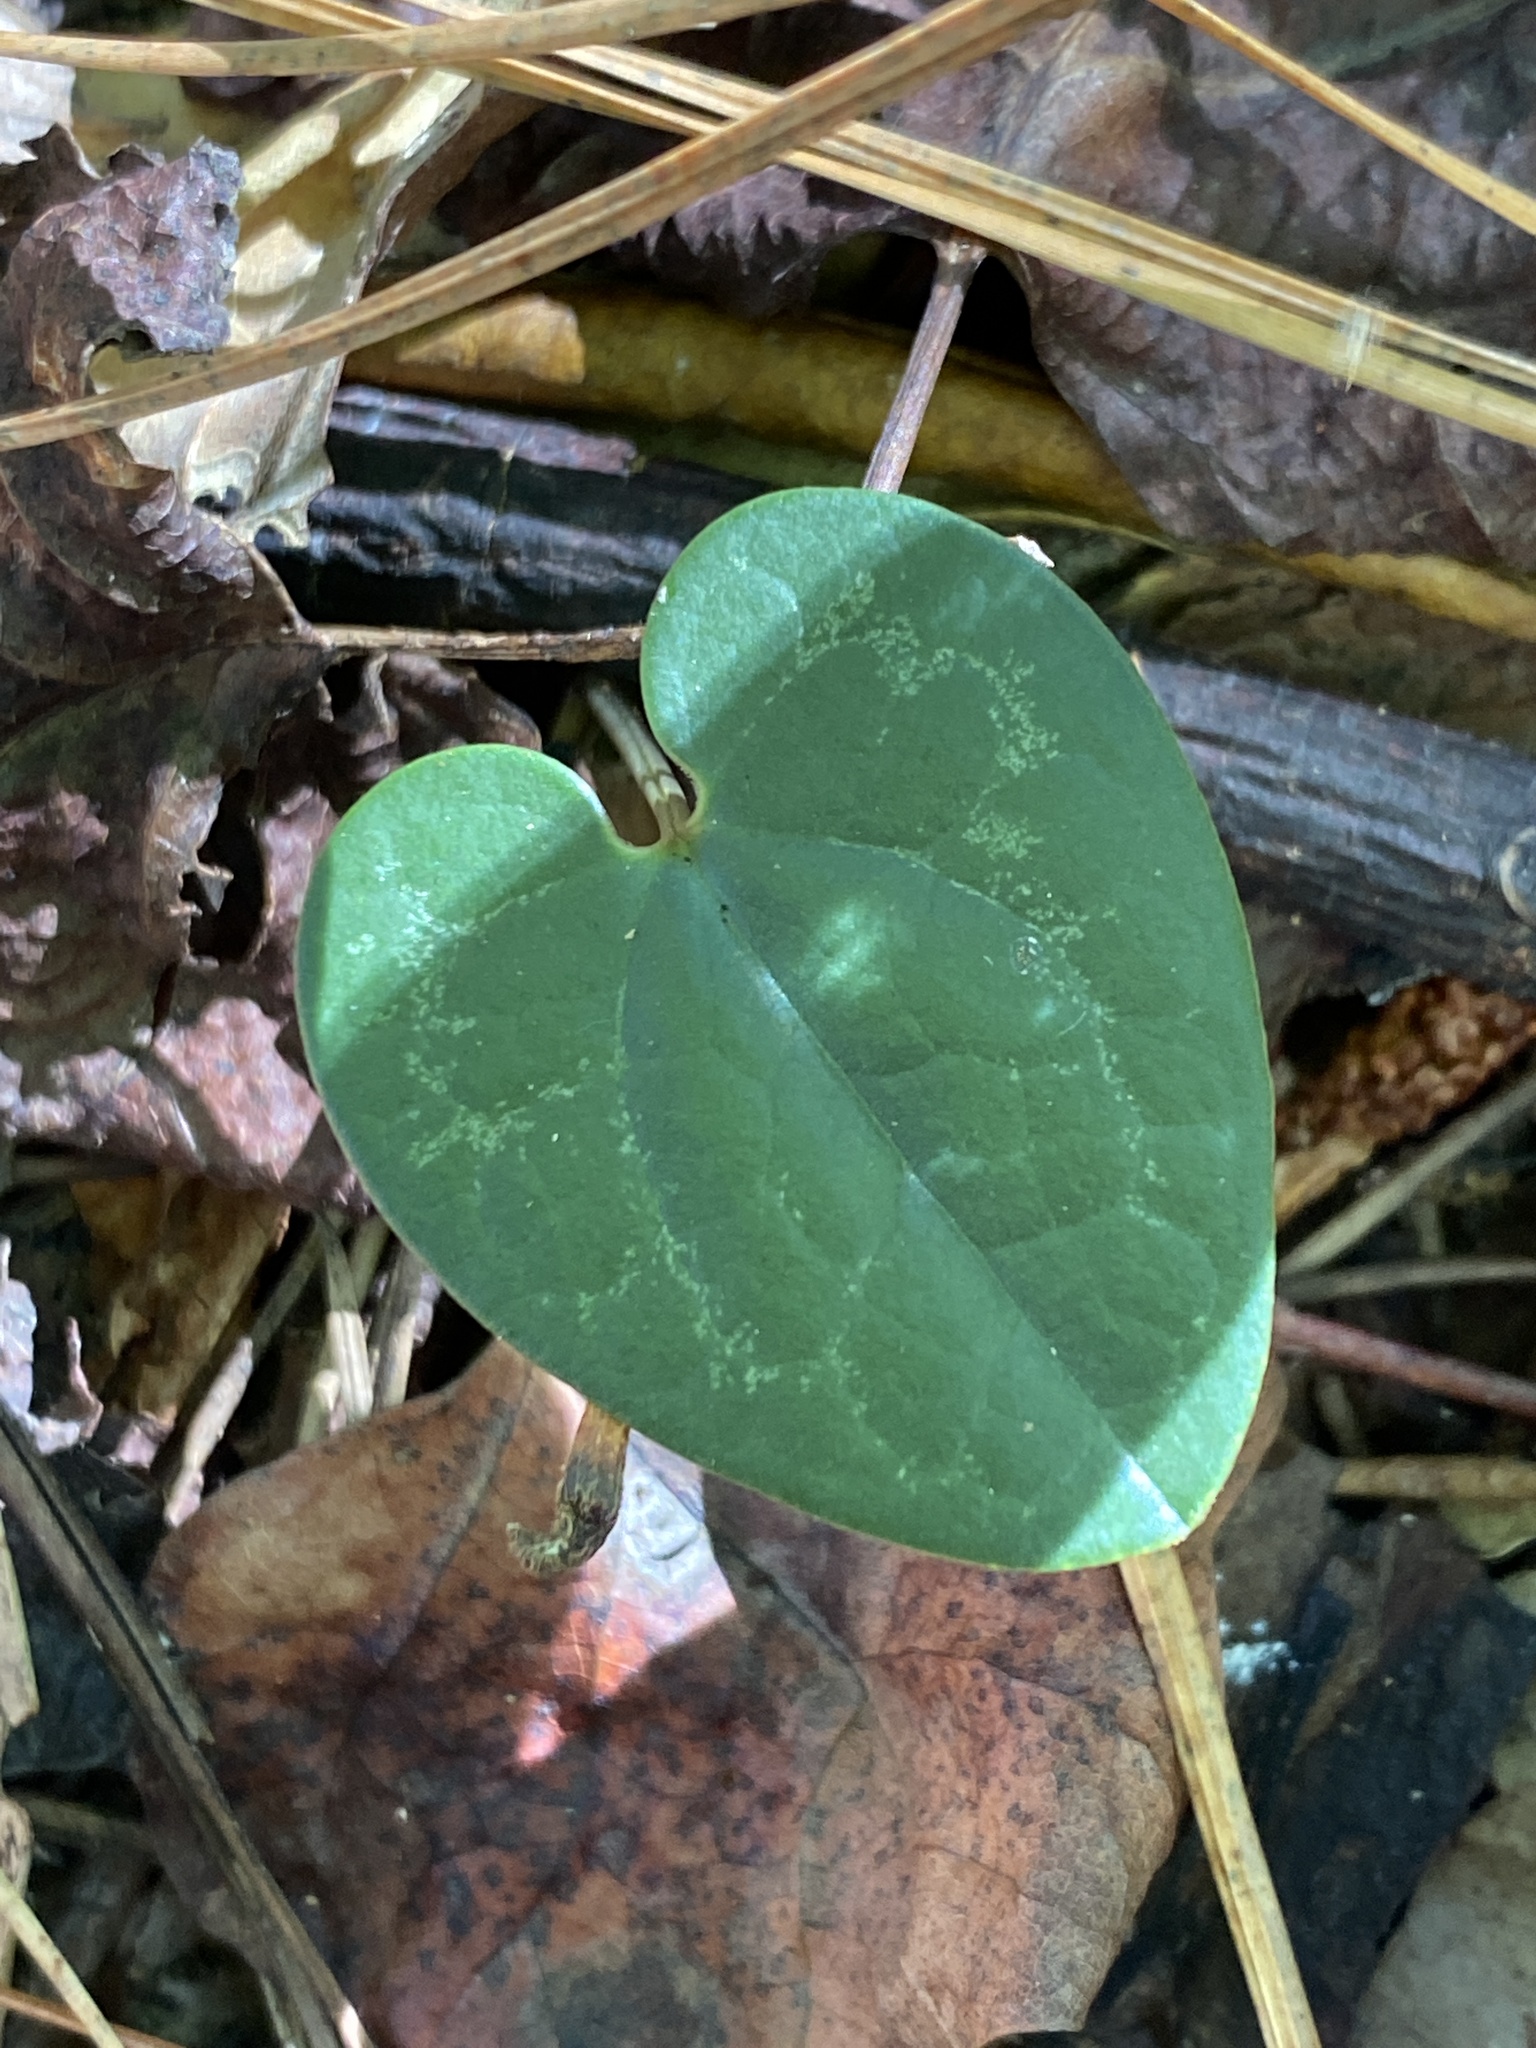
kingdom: Plantae
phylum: Tracheophyta
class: Magnoliopsida
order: Piperales
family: Aristolochiaceae
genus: Hexastylis
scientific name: Hexastylis sorriei
